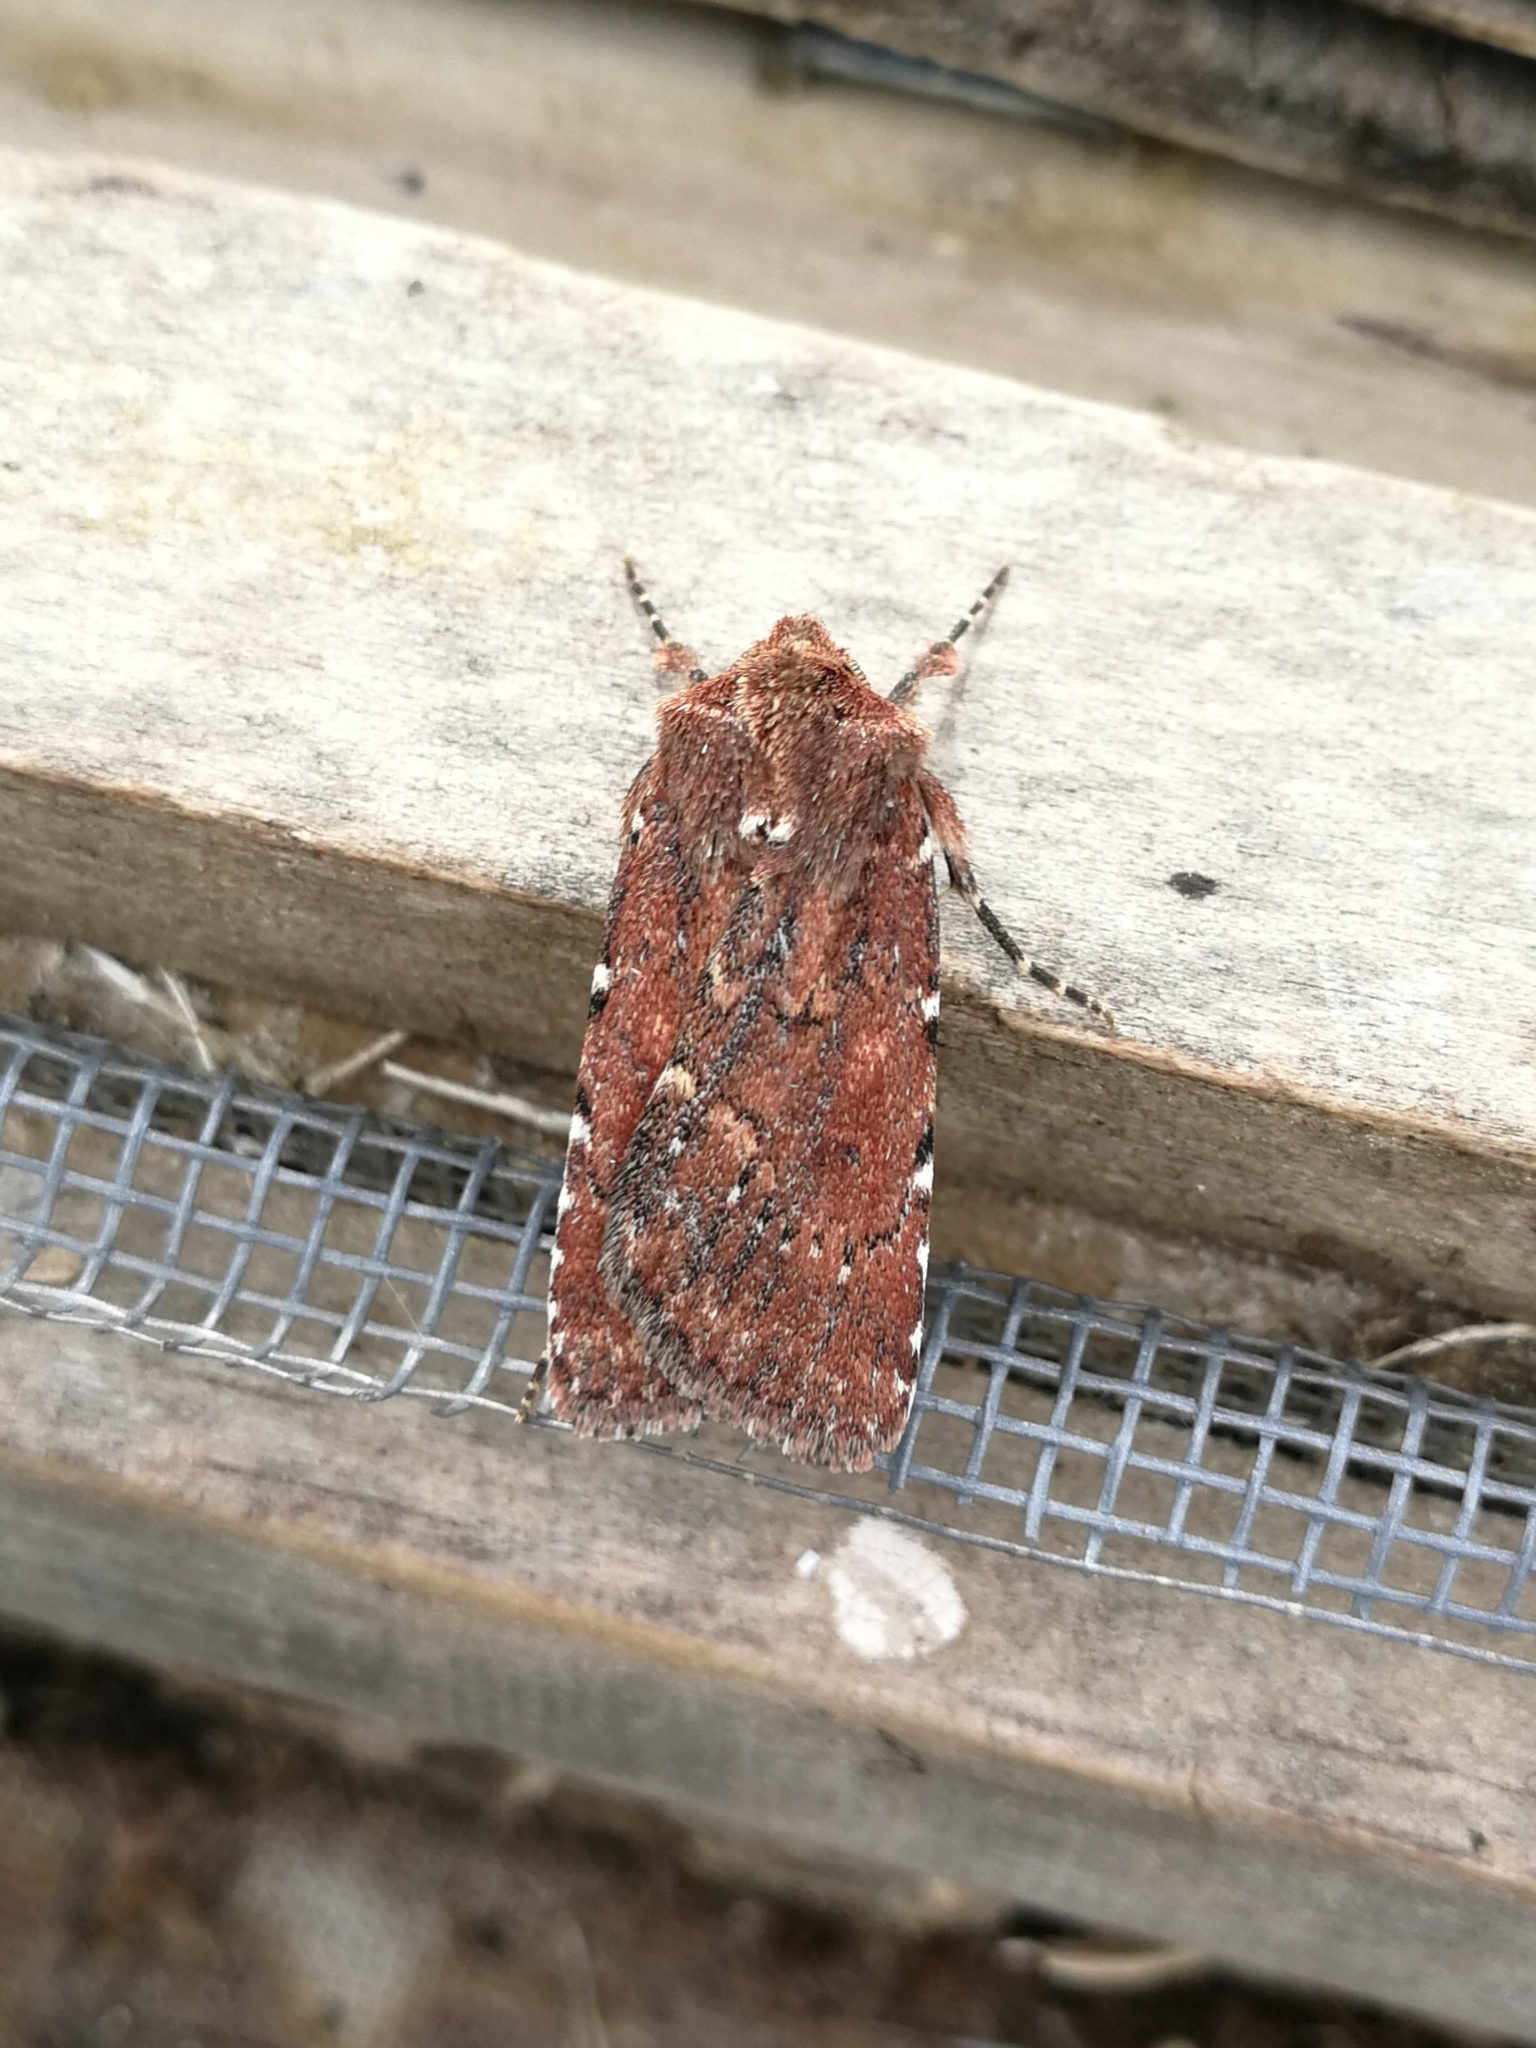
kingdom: Animalia
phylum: Arthropoda
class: Insecta
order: Lepidoptera
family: Noctuidae
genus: Lycophotia
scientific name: Lycophotia erythrina
